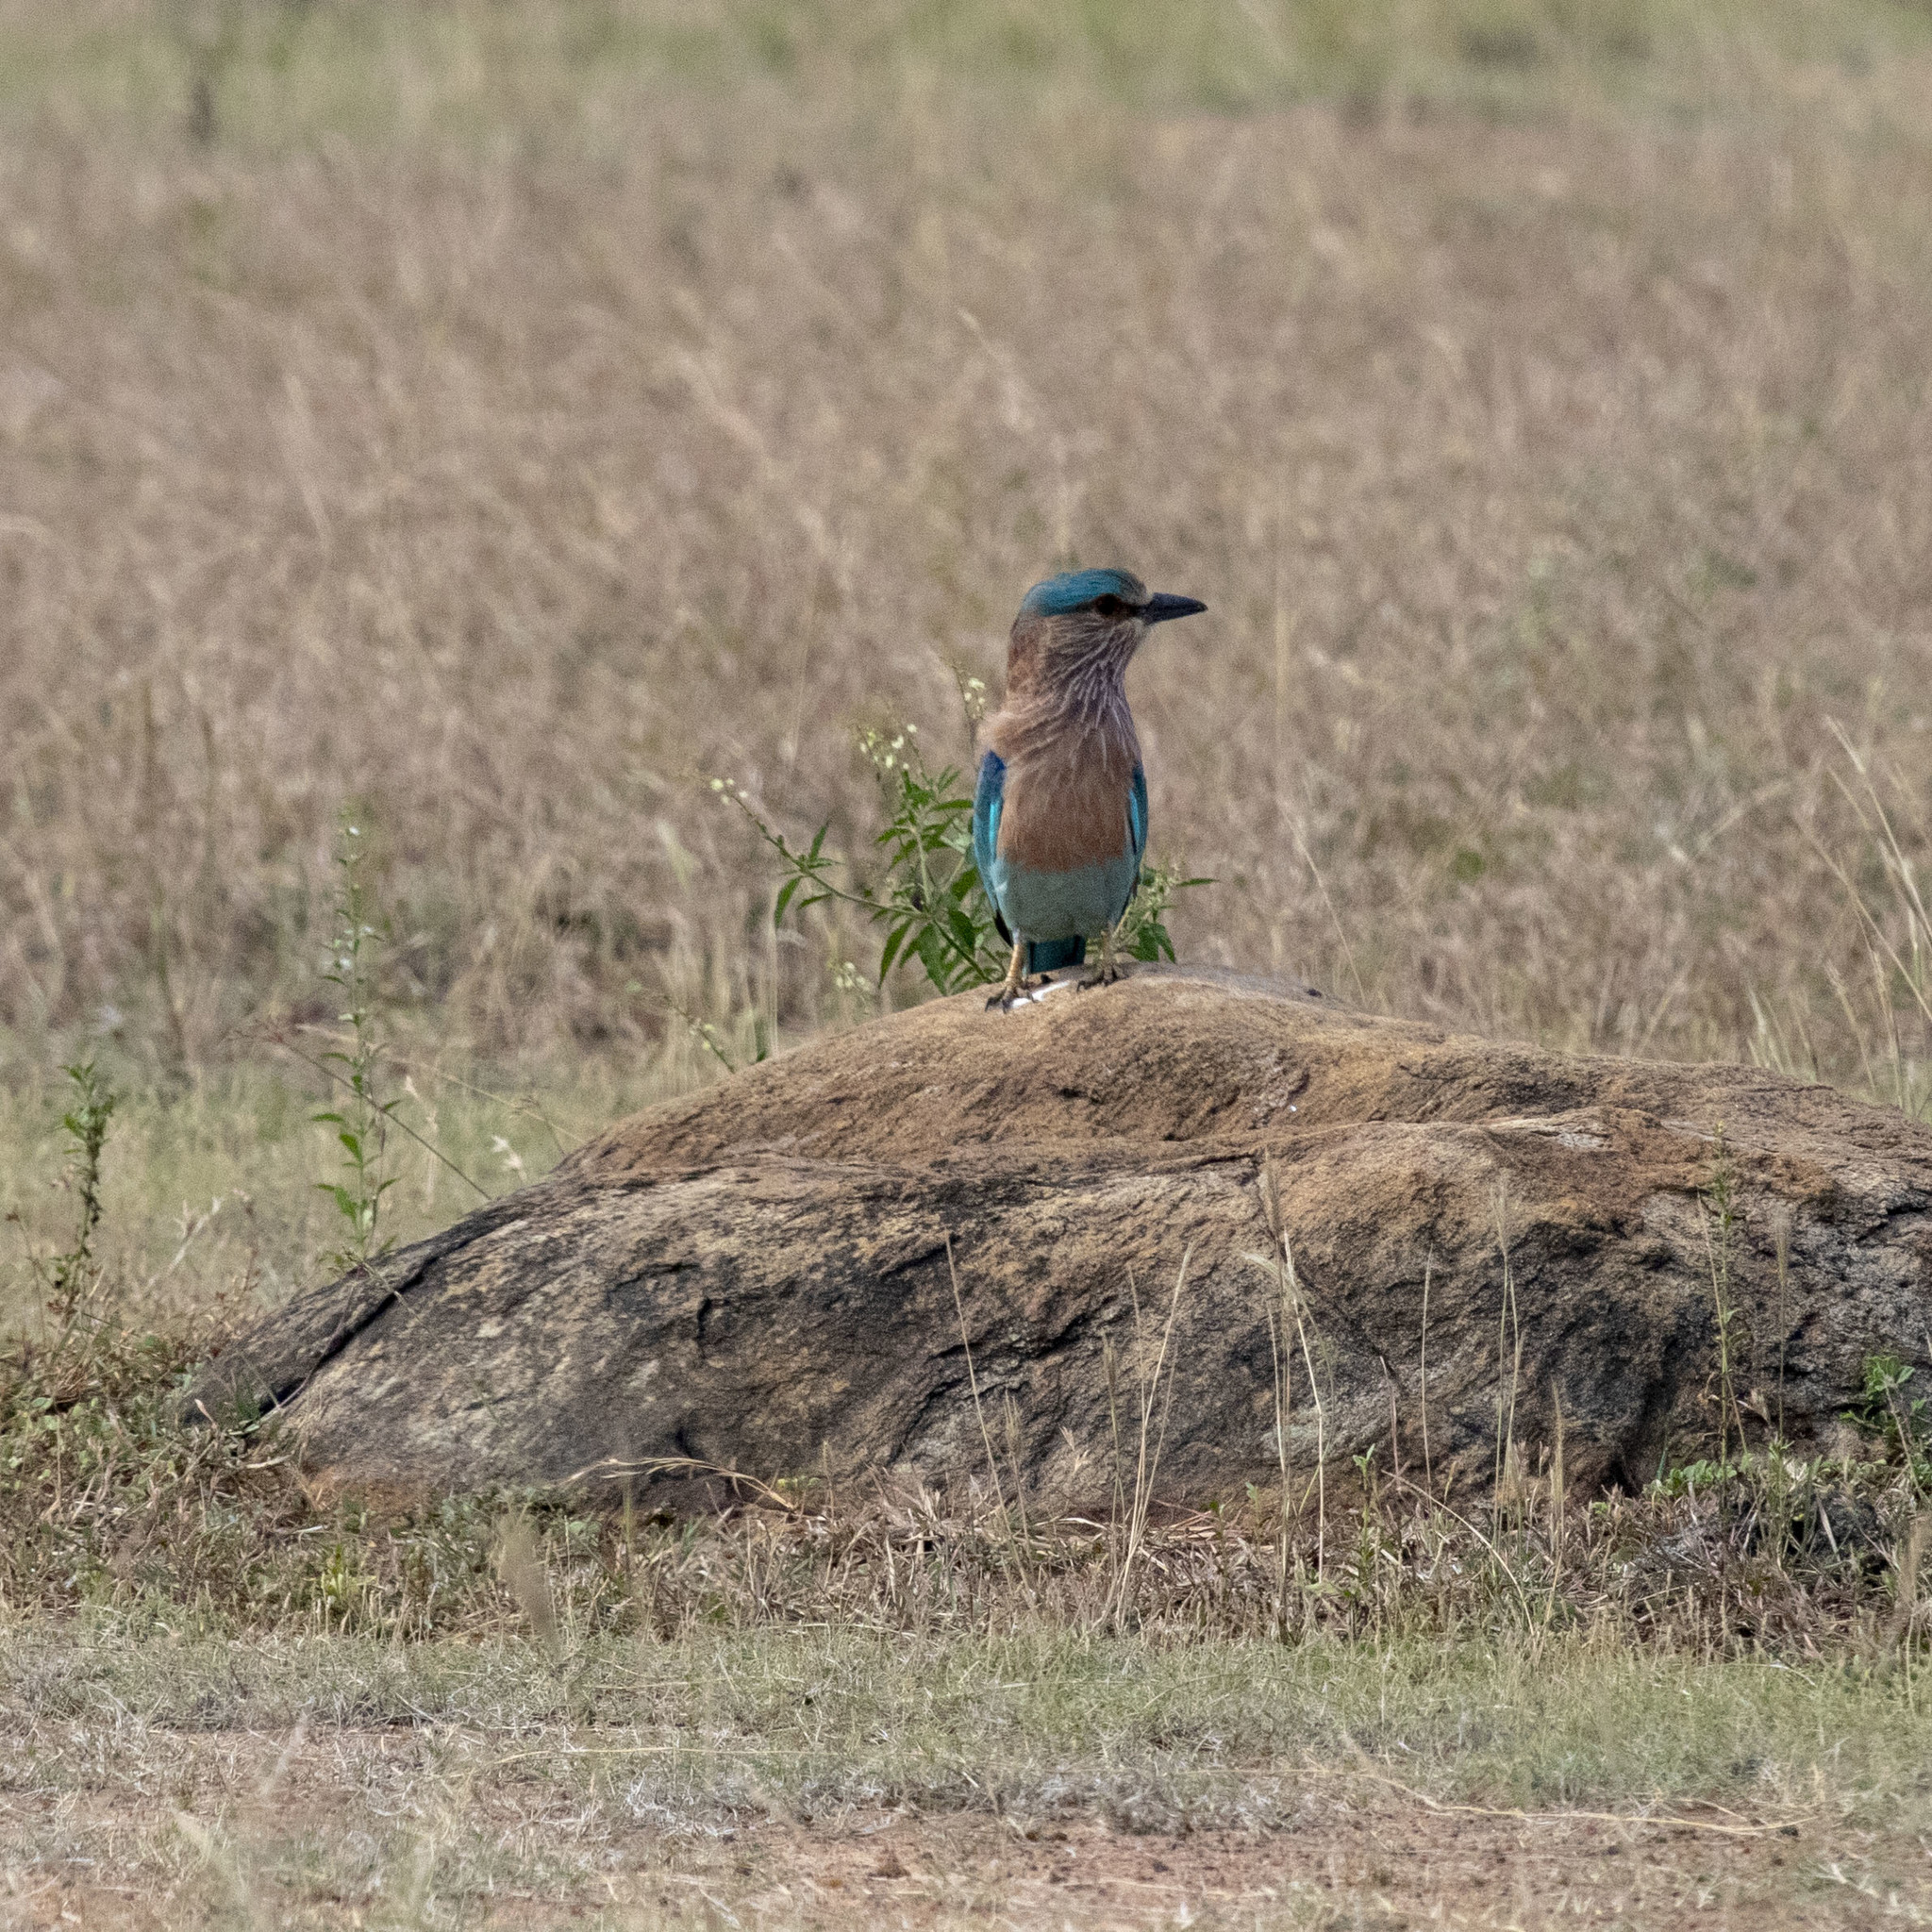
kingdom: Animalia
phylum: Chordata
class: Aves
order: Coraciiformes
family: Coraciidae
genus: Coracias
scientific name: Coracias benghalensis
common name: Indian roller
